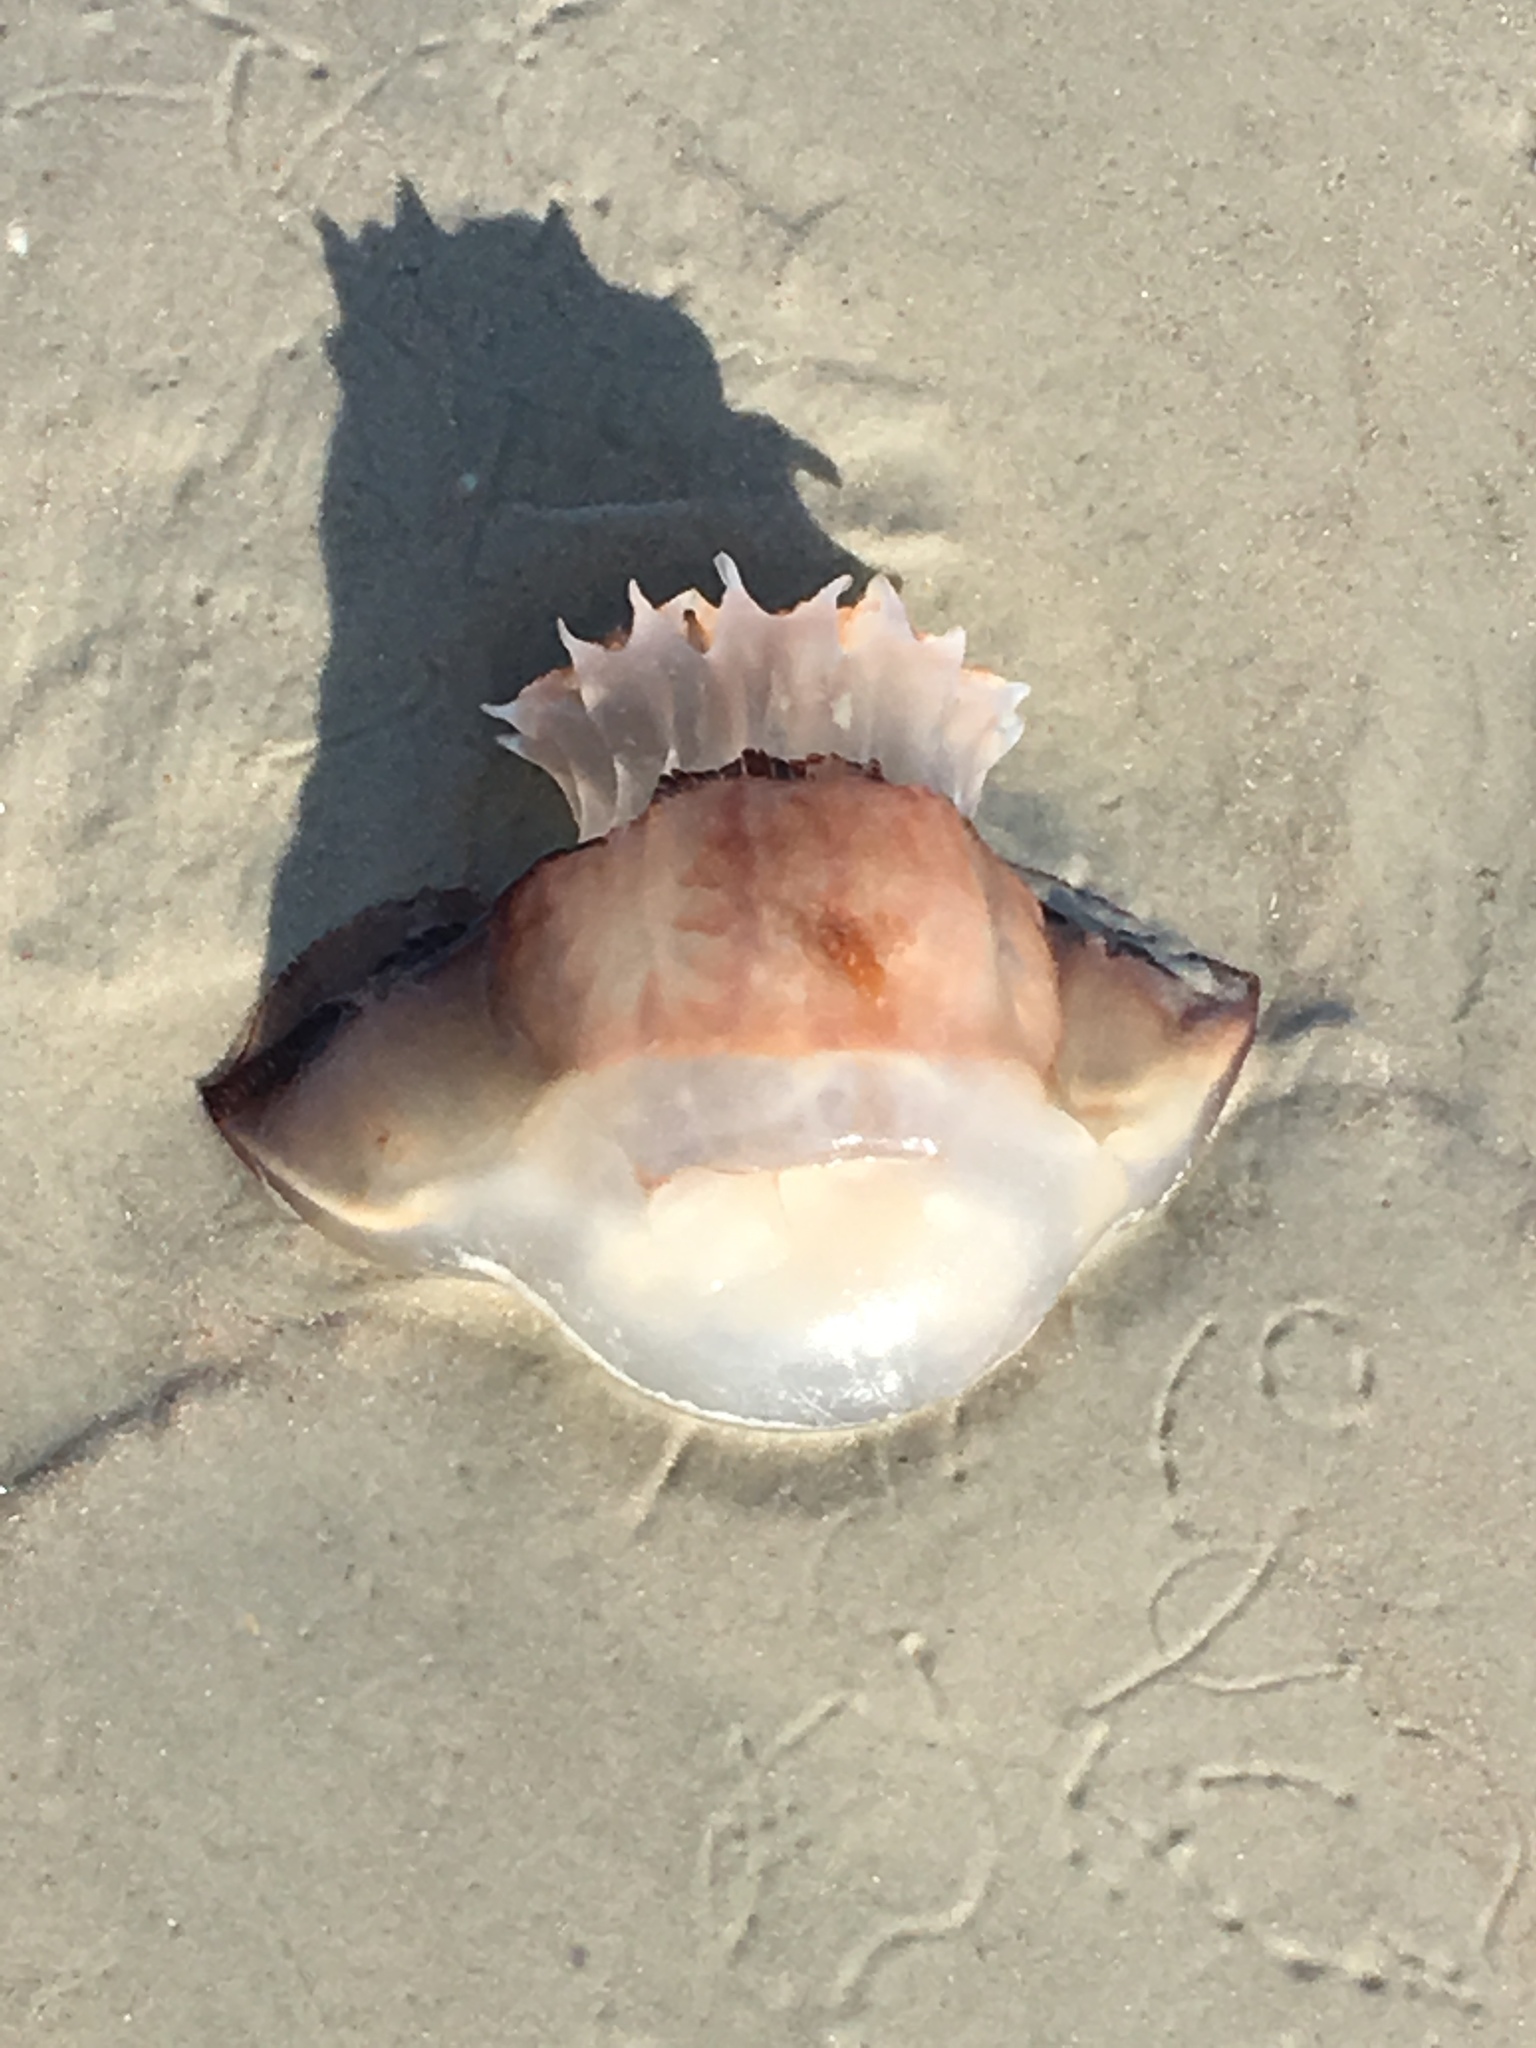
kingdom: Animalia
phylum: Cnidaria
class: Scyphozoa
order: Rhizostomeae
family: Stomolophidae
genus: Stomolophus
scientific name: Stomolophus meleagris
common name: Cabbagehead
